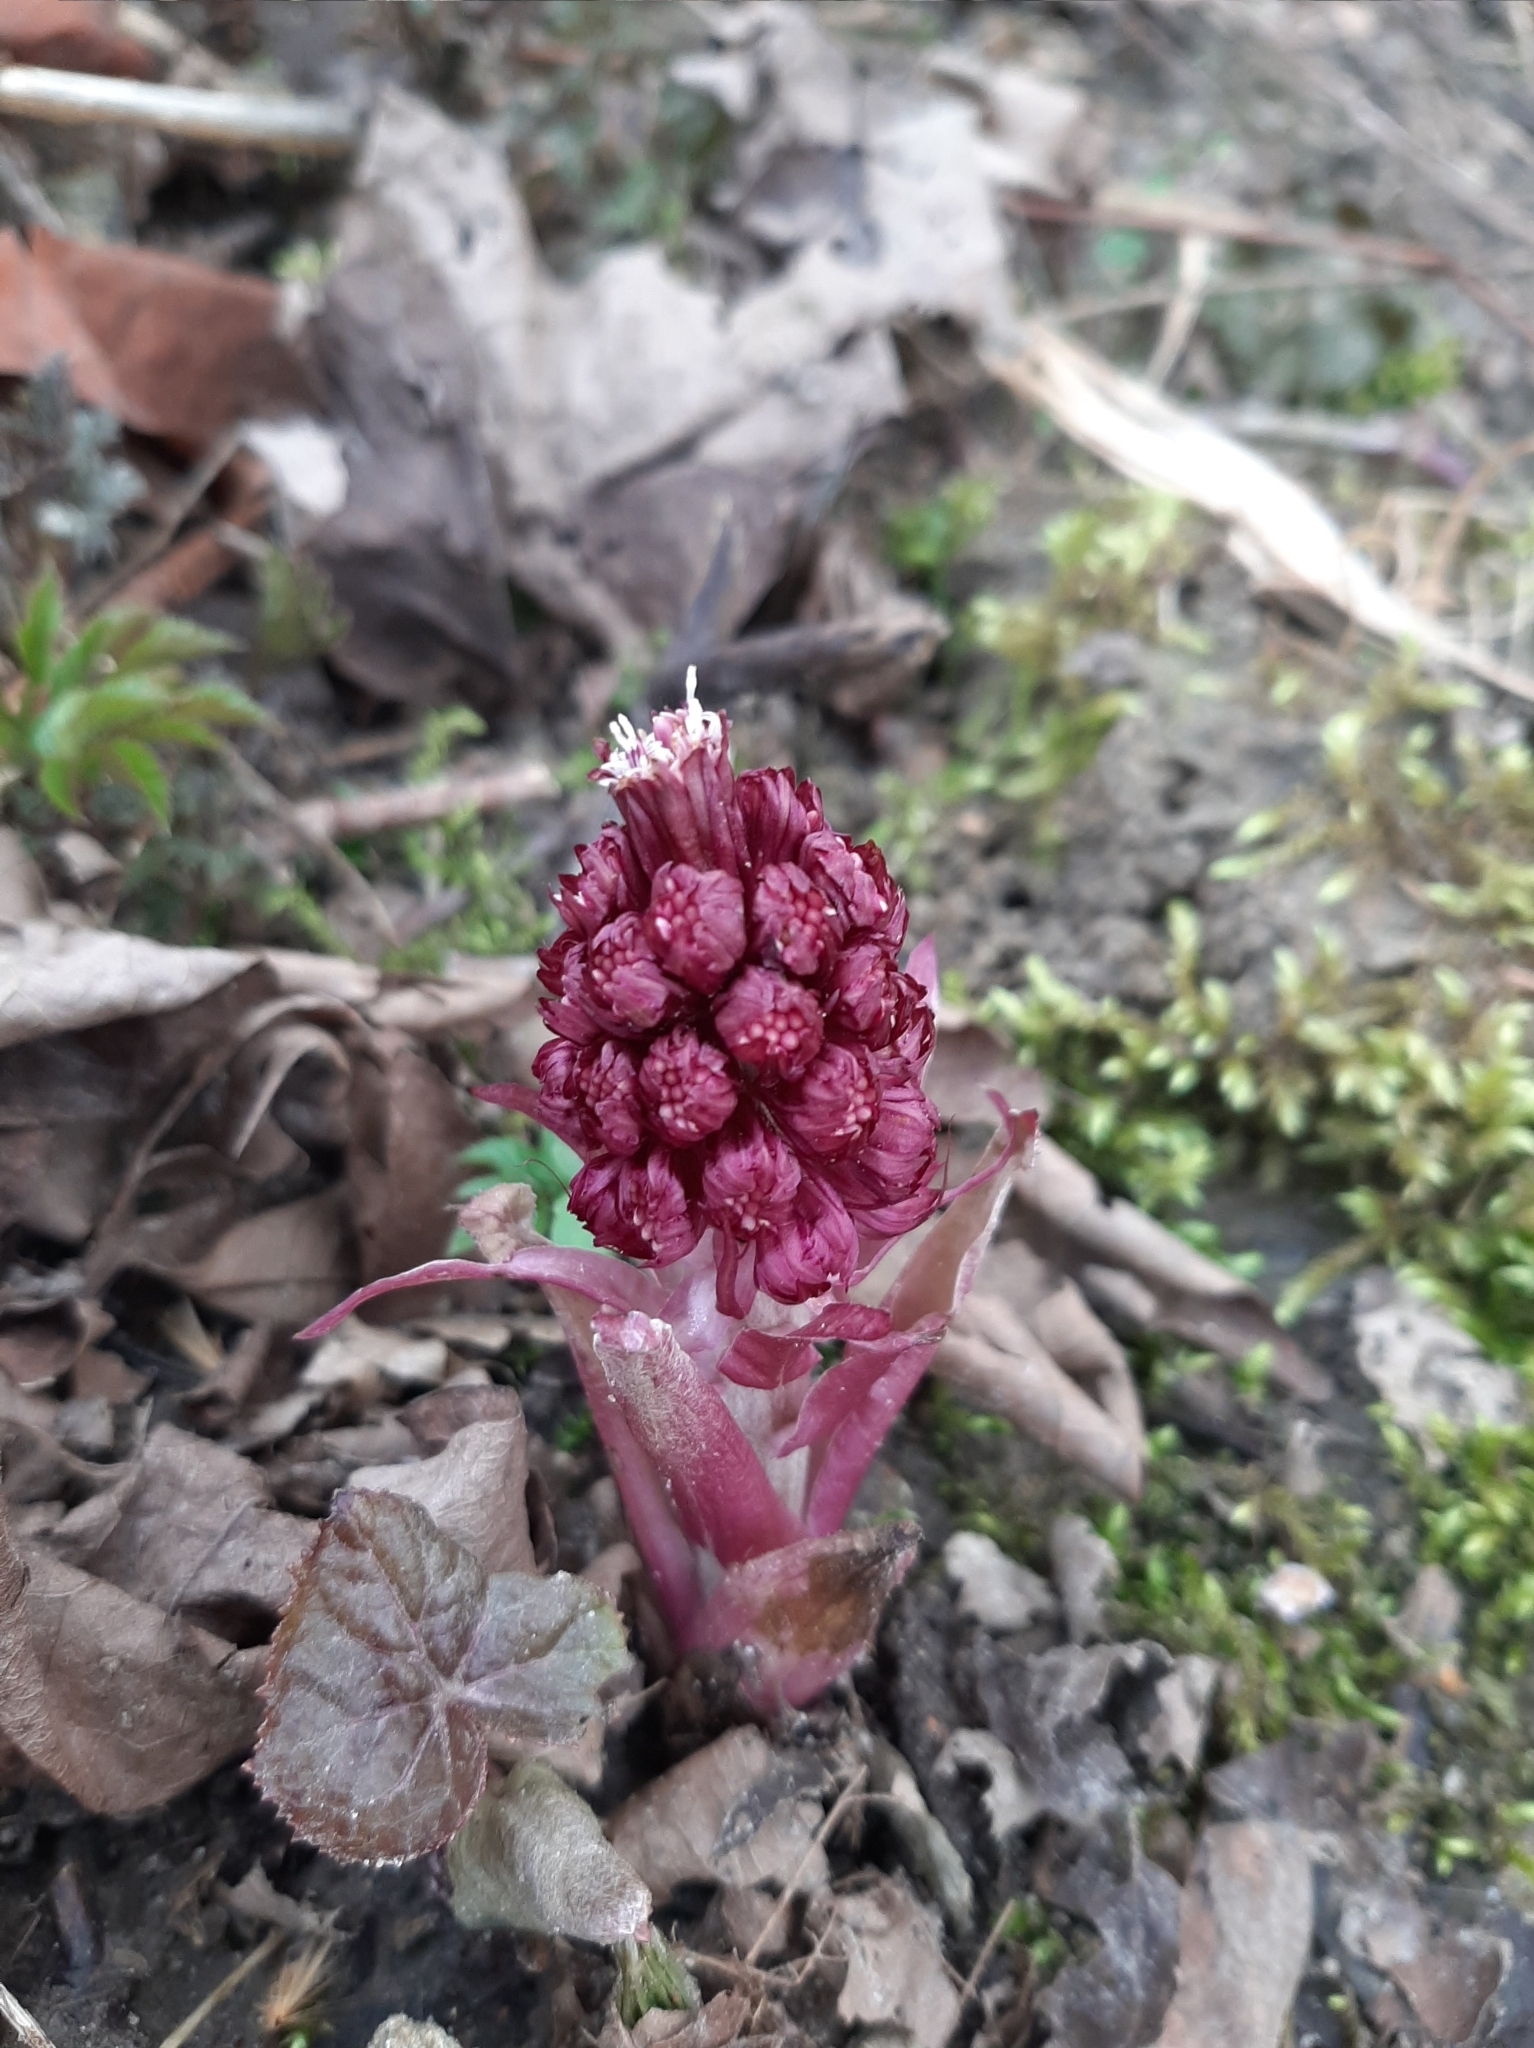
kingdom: Plantae
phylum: Tracheophyta
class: Magnoliopsida
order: Asterales
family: Asteraceae
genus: Petasites
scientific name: Petasites hybridus
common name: Butterbur
